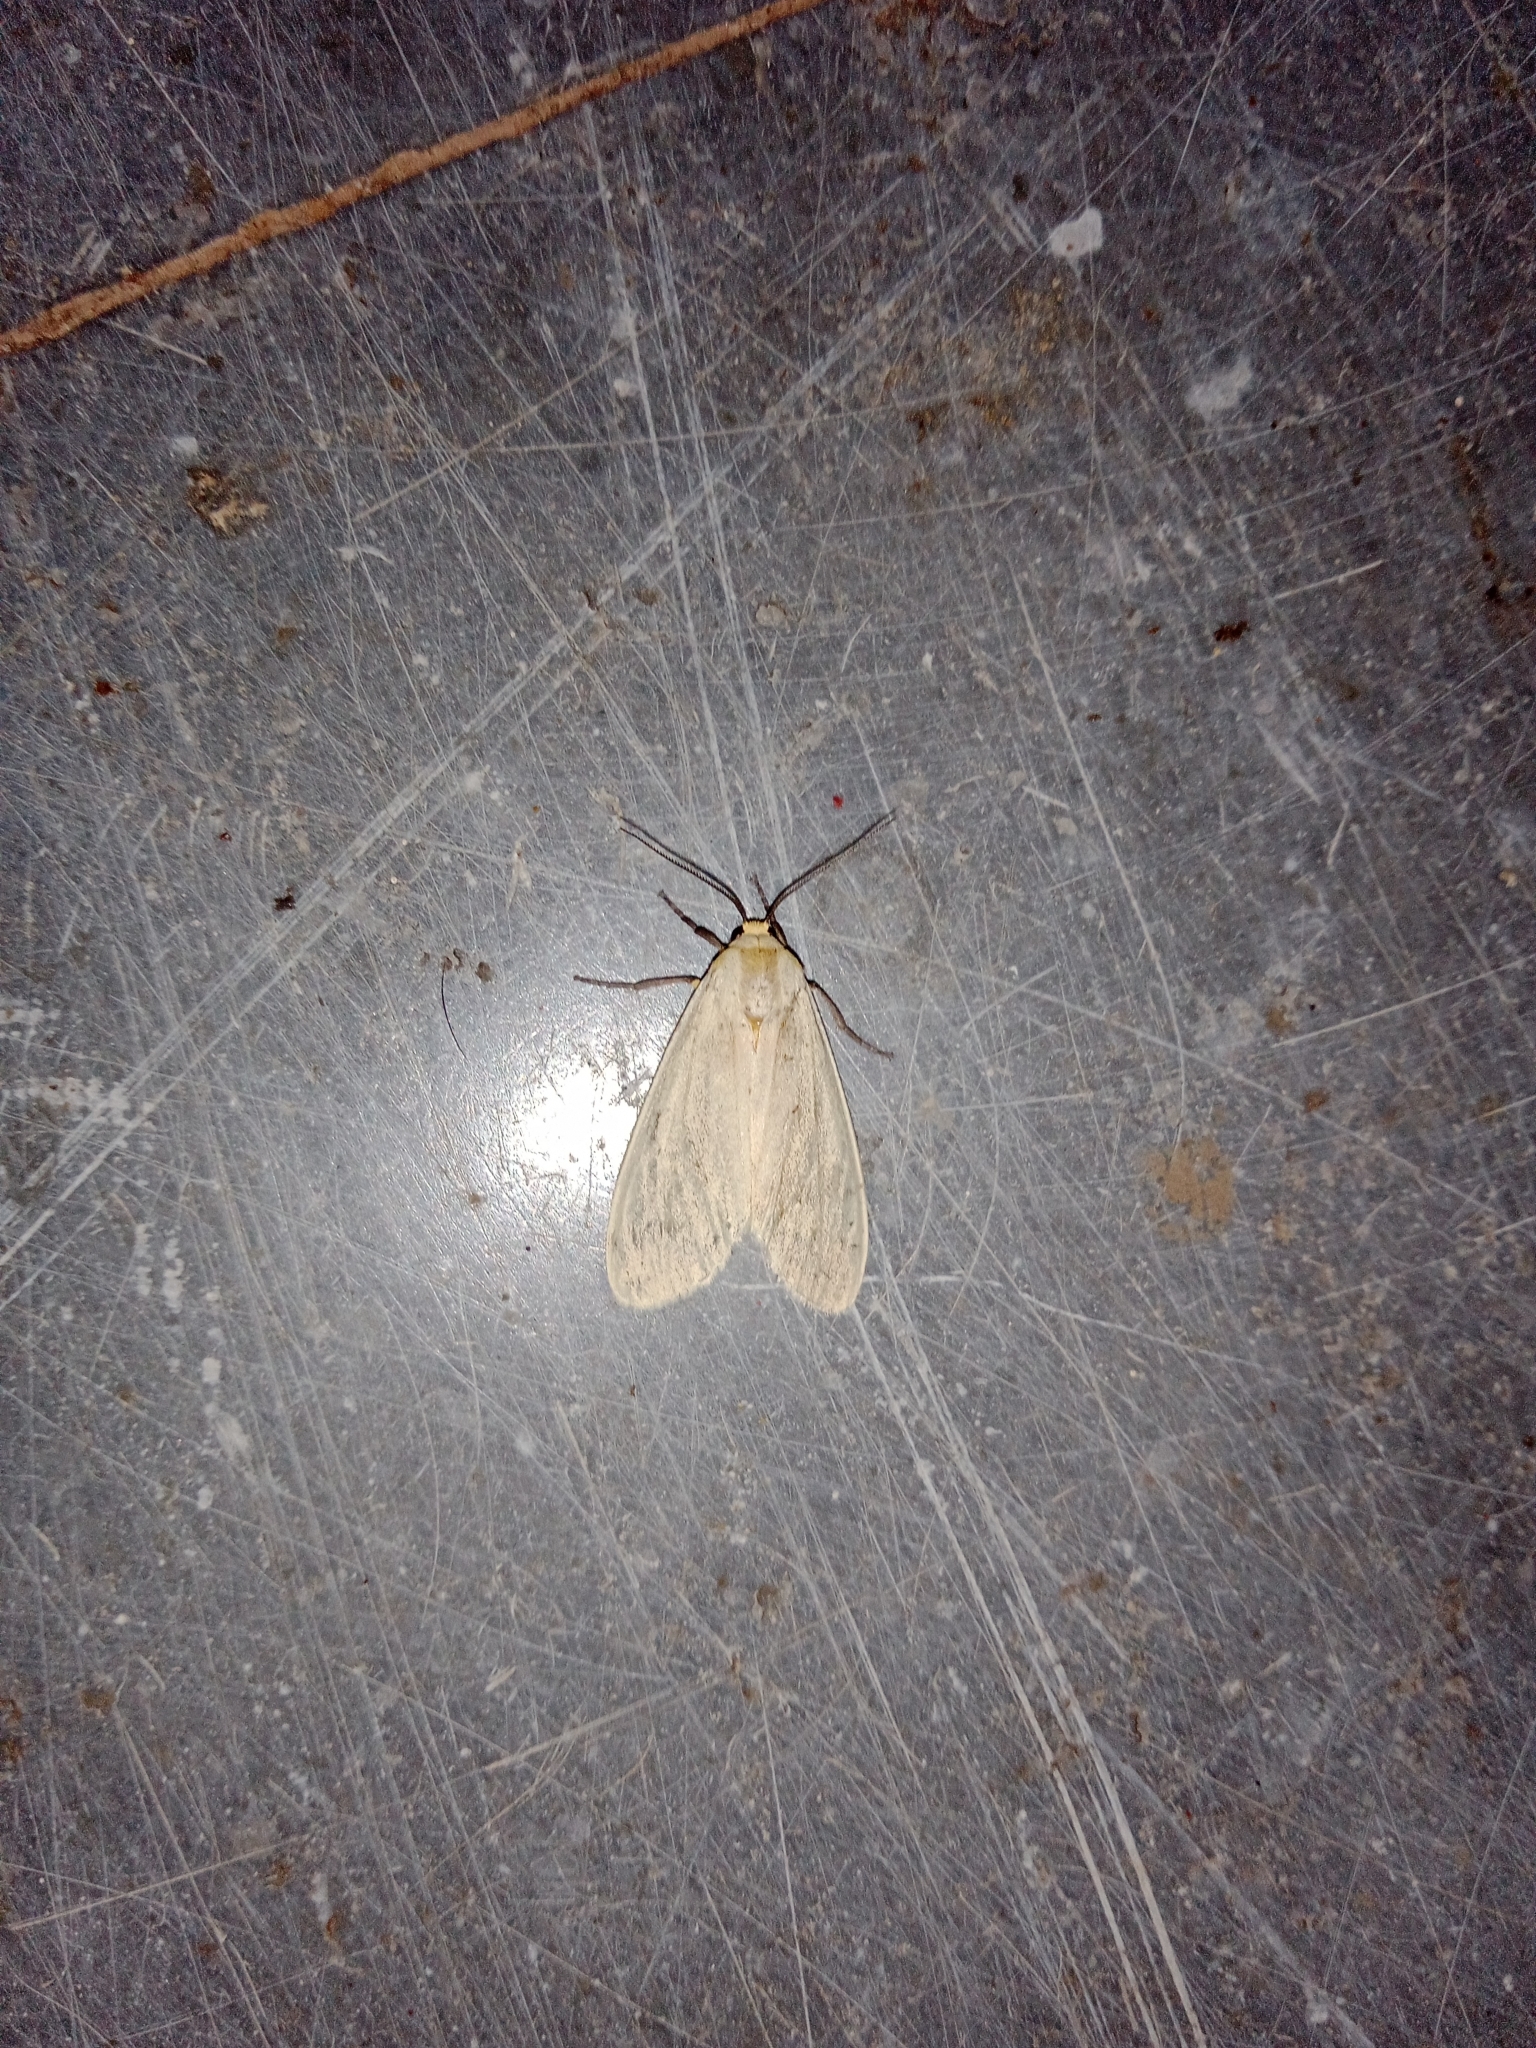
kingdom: Animalia
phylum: Arthropoda
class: Insecta
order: Lepidoptera
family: Erebidae
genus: Pareuchaetes
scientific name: Pareuchaetes pseudoinsulata
